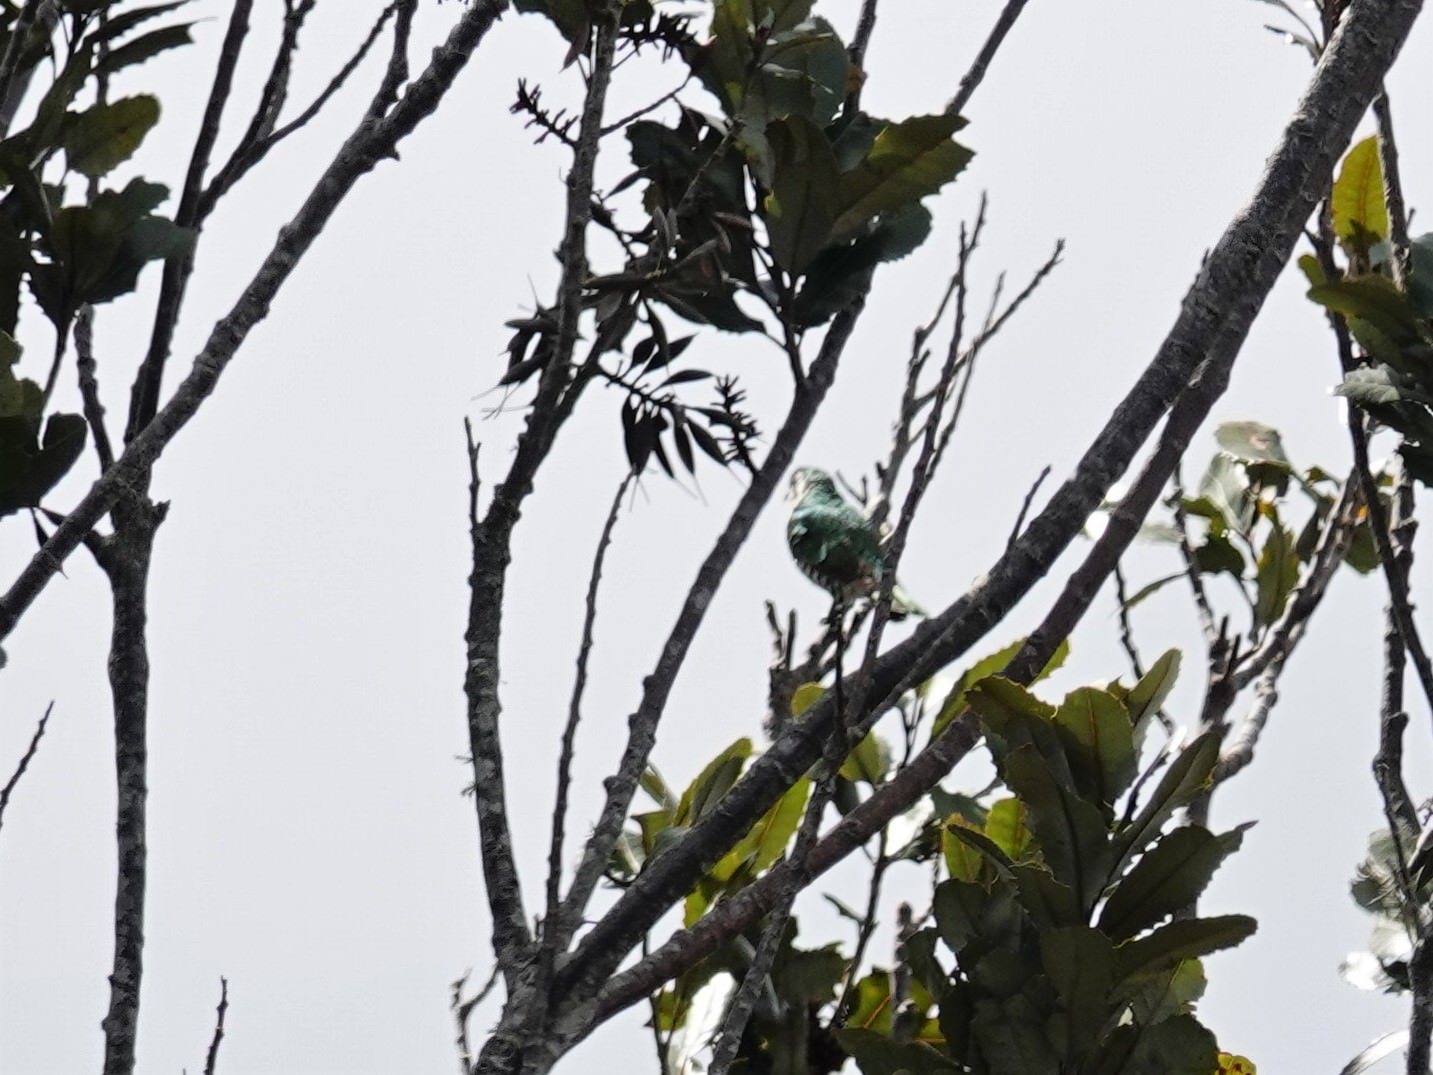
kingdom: Animalia
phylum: Chordata
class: Aves
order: Cuculiformes
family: Cuculidae
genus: Chrysococcyx
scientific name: Chrysococcyx lucidus
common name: Shining bronze cuckoo
